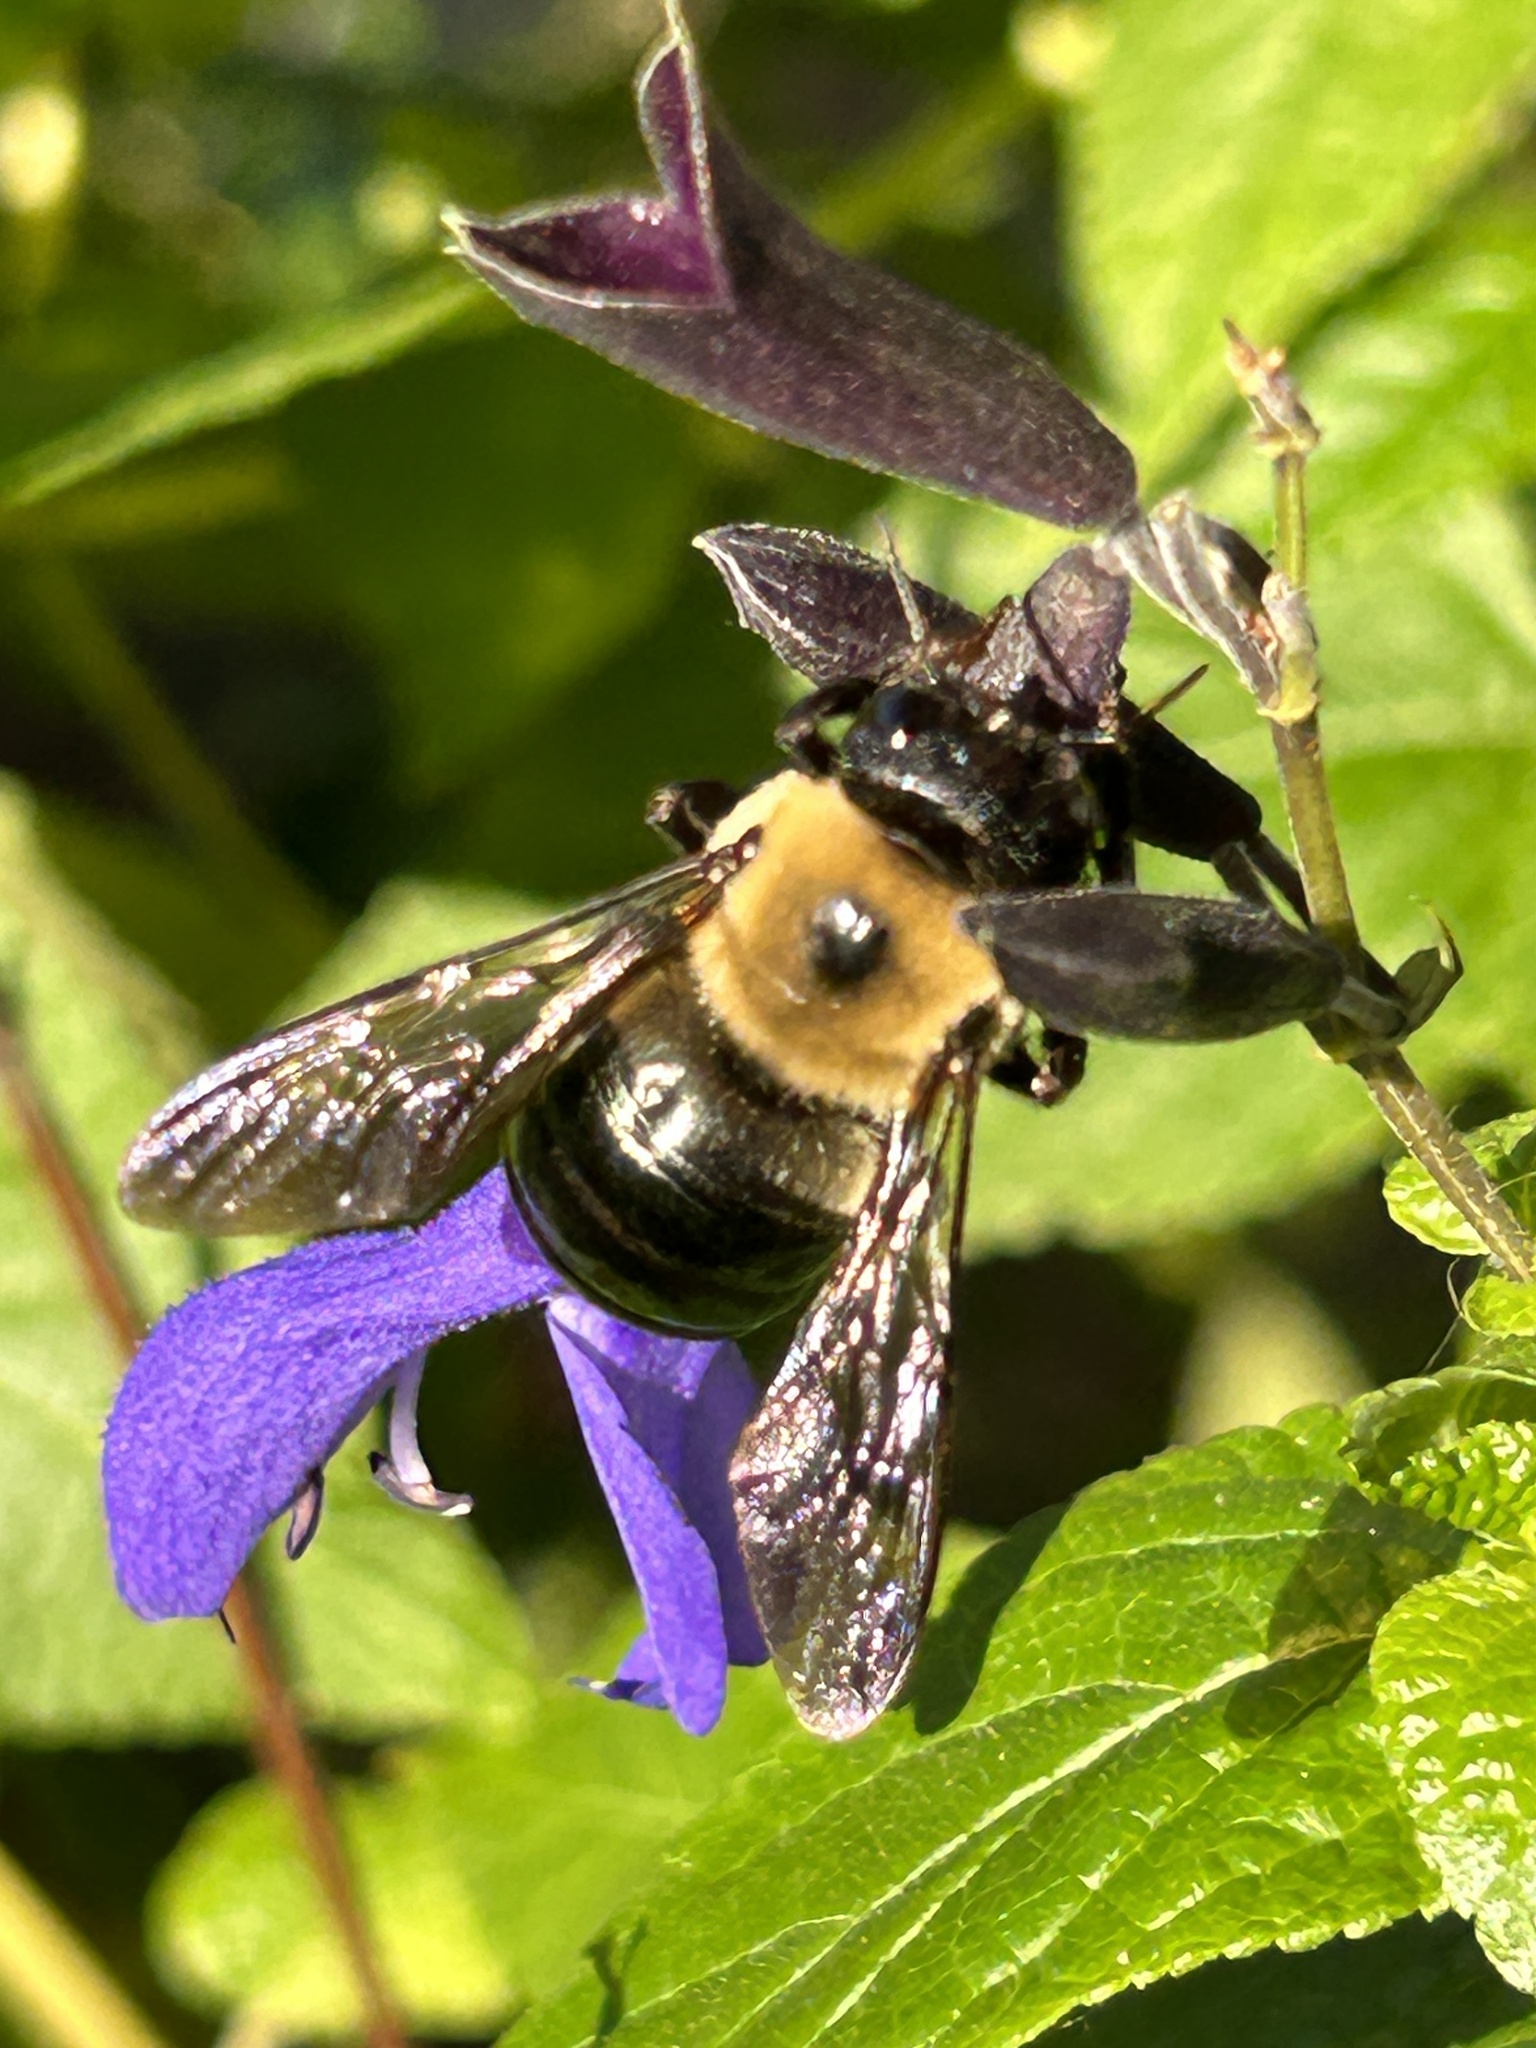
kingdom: Animalia
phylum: Arthropoda
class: Insecta
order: Hymenoptera
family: Apidae
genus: Xylocopa
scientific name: Xylocopa virginica
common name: Carpenter bee
